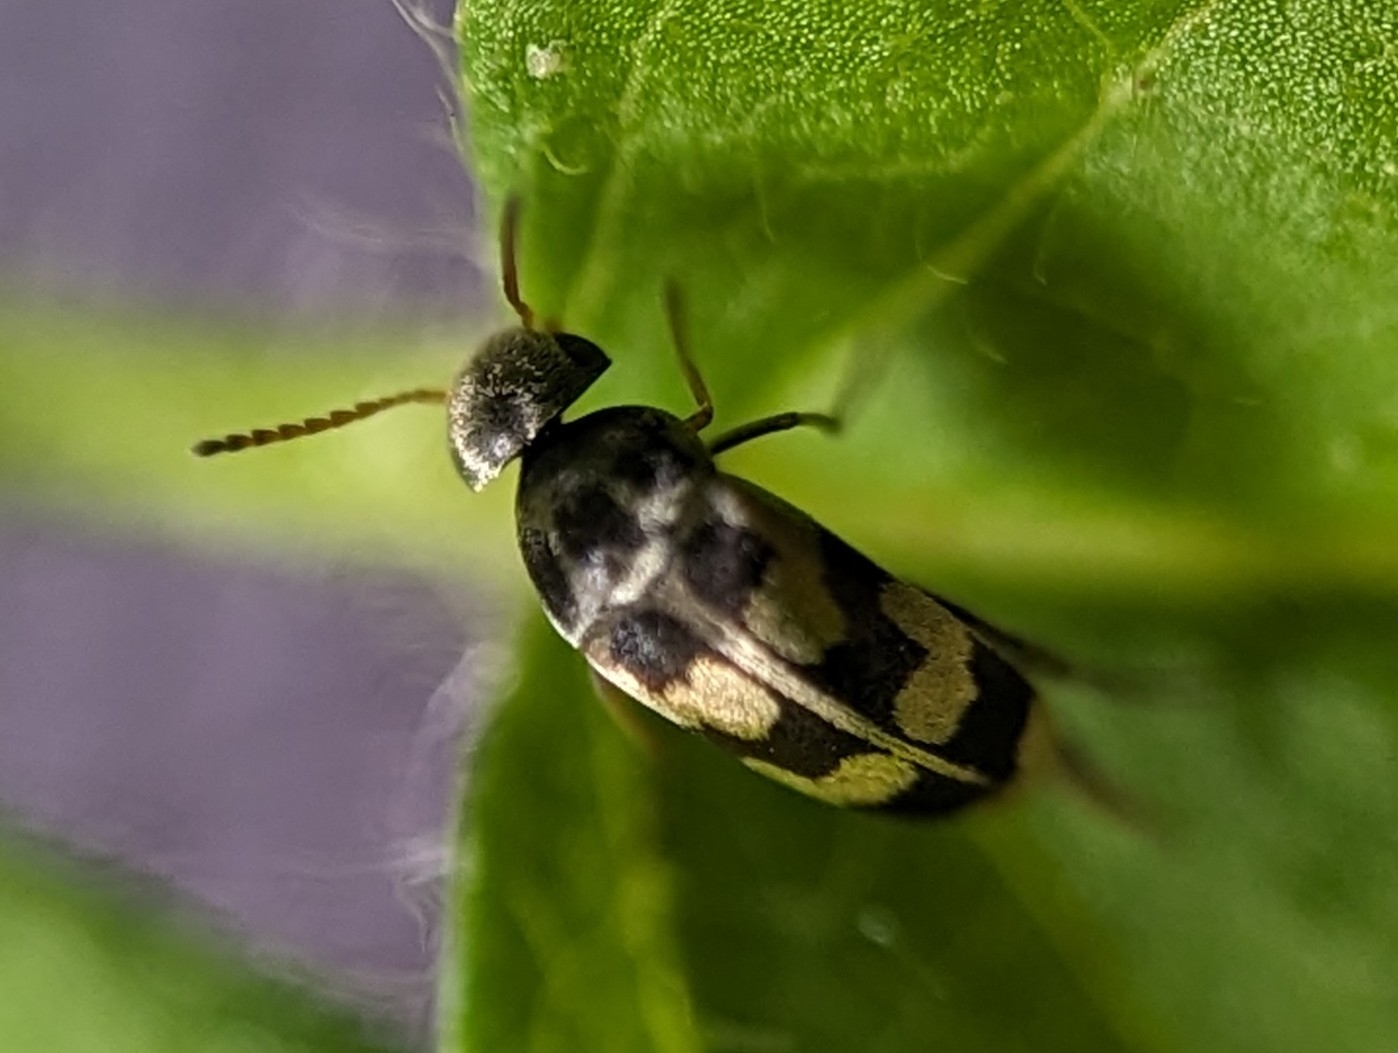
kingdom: Animalia
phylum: Arthropoda
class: Insecta
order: Coleoptera
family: Mordellidae
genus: Falsomordellistena
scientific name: Falsomordellistena pubescens
